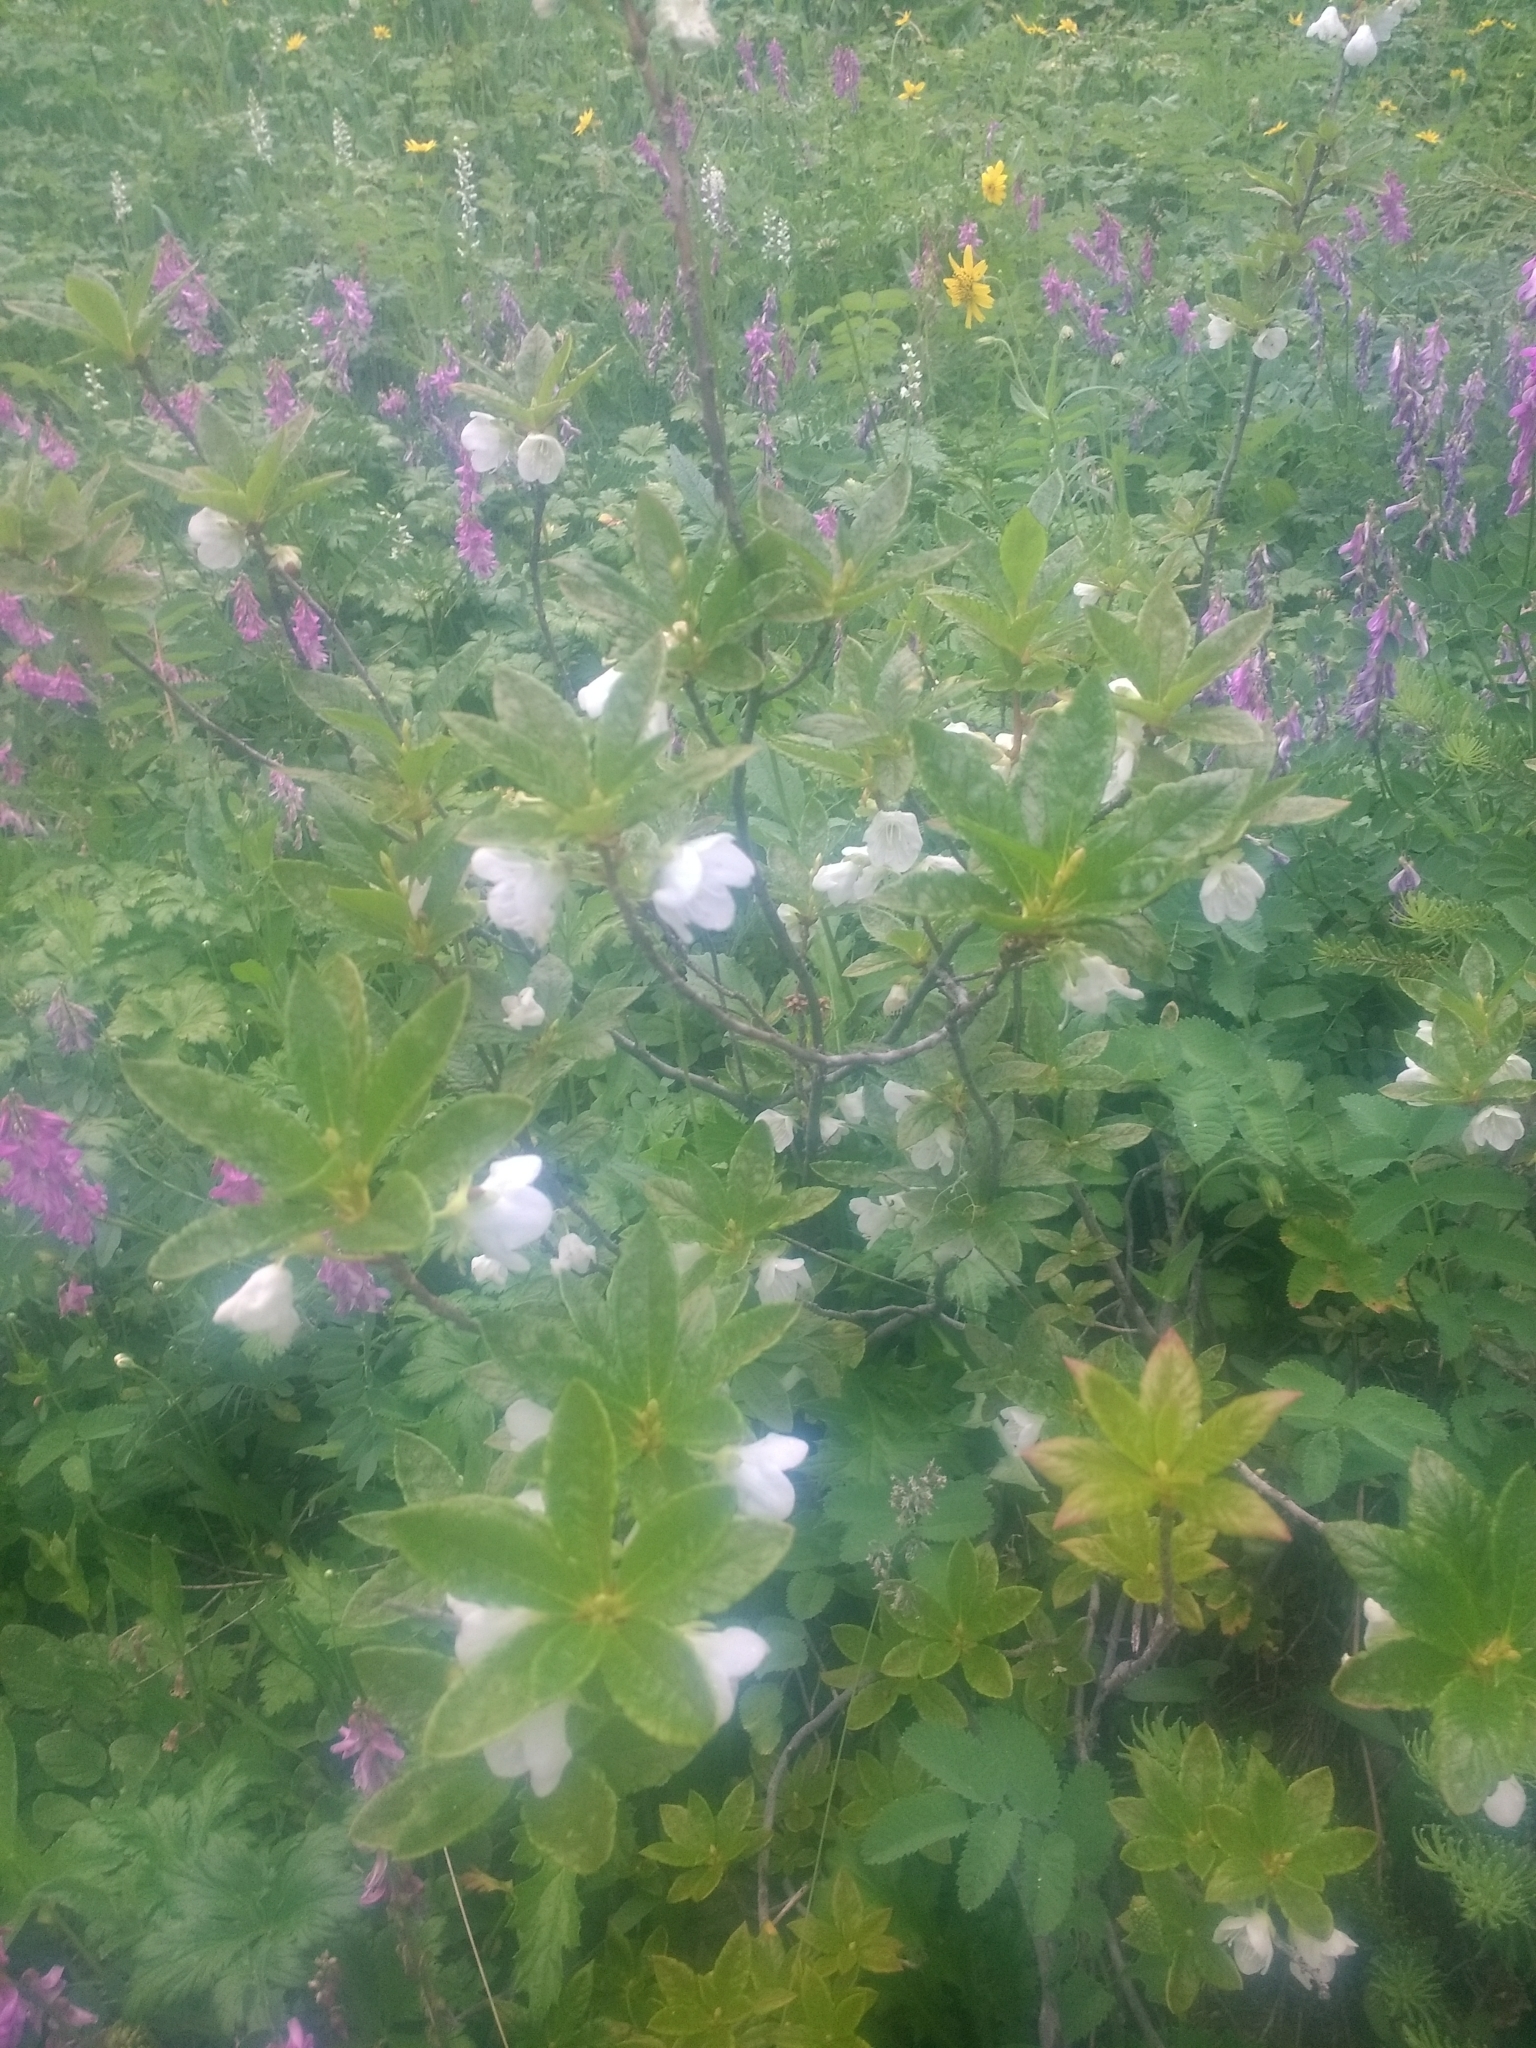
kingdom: Plantae
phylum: Tracheophyta
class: Magnoliopsida
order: Ericales
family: Ericaceae
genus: Rhododendron
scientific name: Rhododendron albiflorum
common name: White rhododendron
